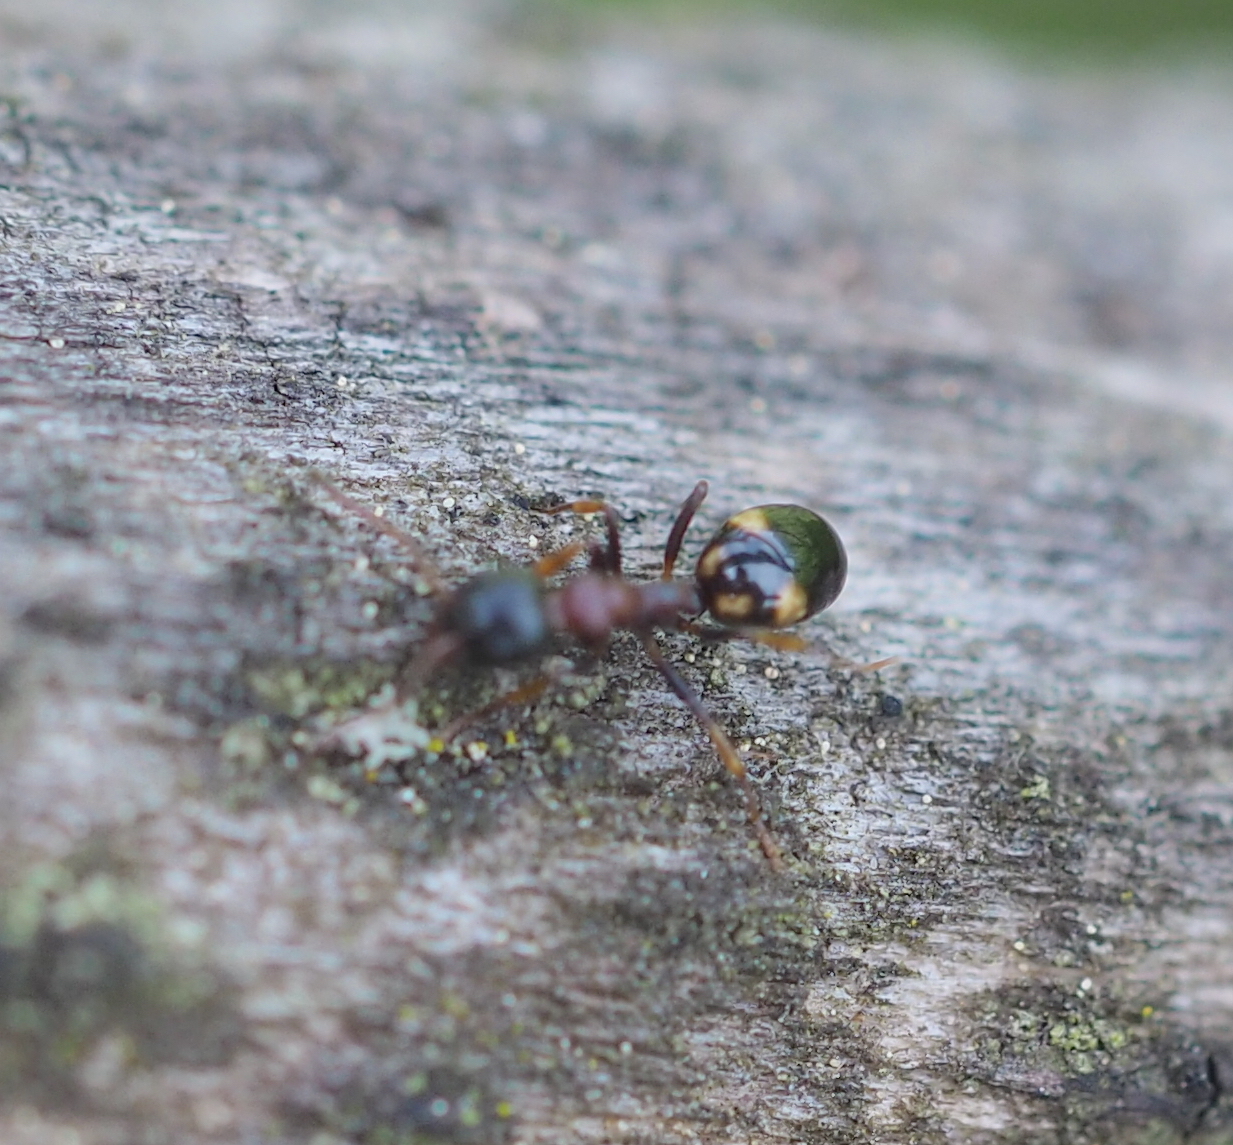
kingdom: Animalia
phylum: Arthropoda
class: Insecta
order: Hymenoptera
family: Formicidae
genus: Dolichoderus
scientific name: Dolichoderus quadripunctatus
